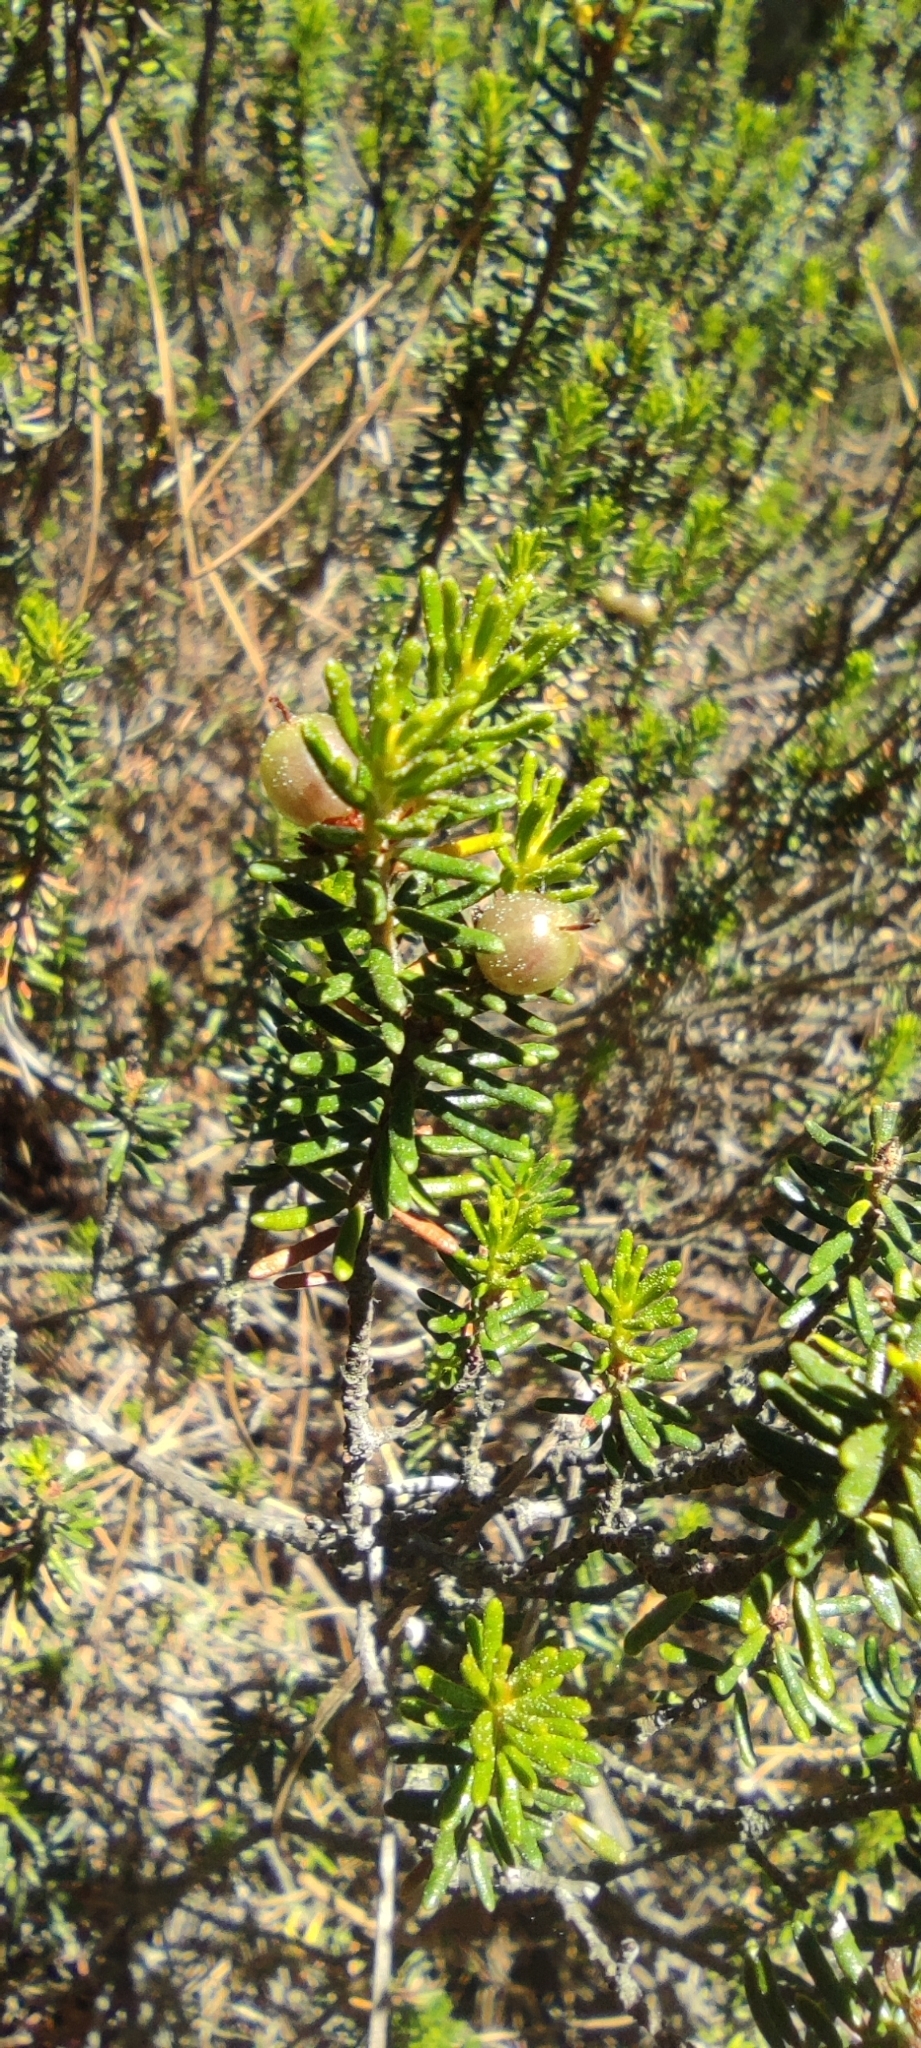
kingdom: Plantae
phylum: Tracheophyta
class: Magnoliopsida
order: Ericales
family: Ericaceae
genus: Corema
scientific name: Corema album
